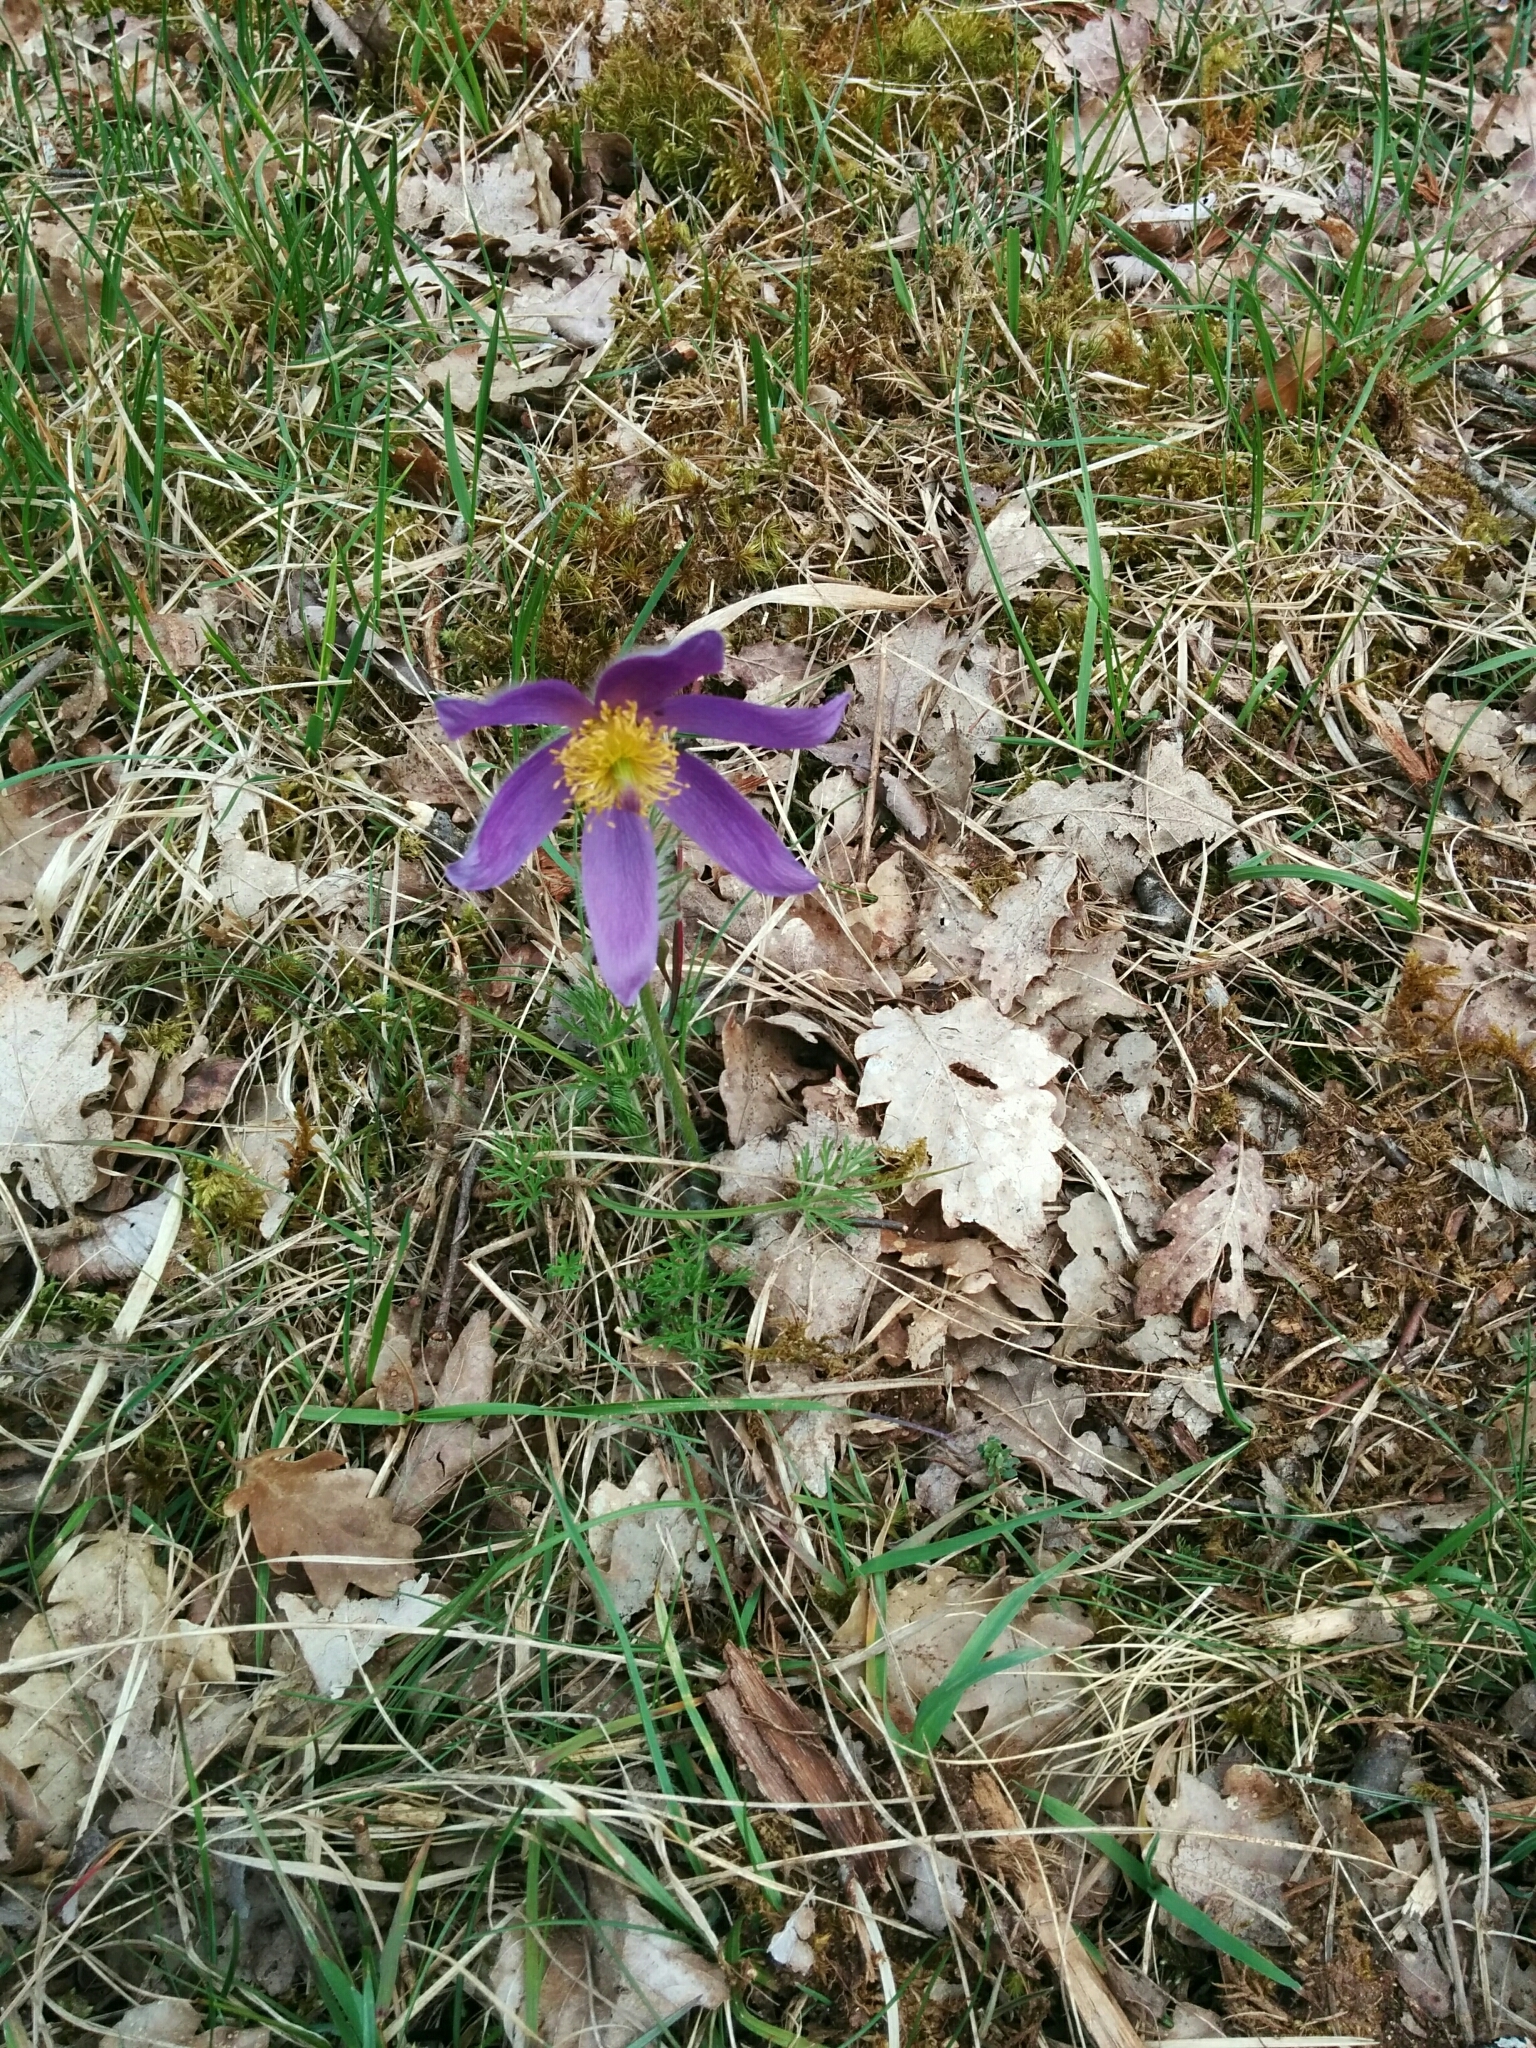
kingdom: Plantae
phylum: Tracheophyta
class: Magnoliopsida
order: Ranunculales
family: Ranunculaceae
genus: Pulsatilla
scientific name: Pulsatilla vulgaris
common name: Pasqueflower
